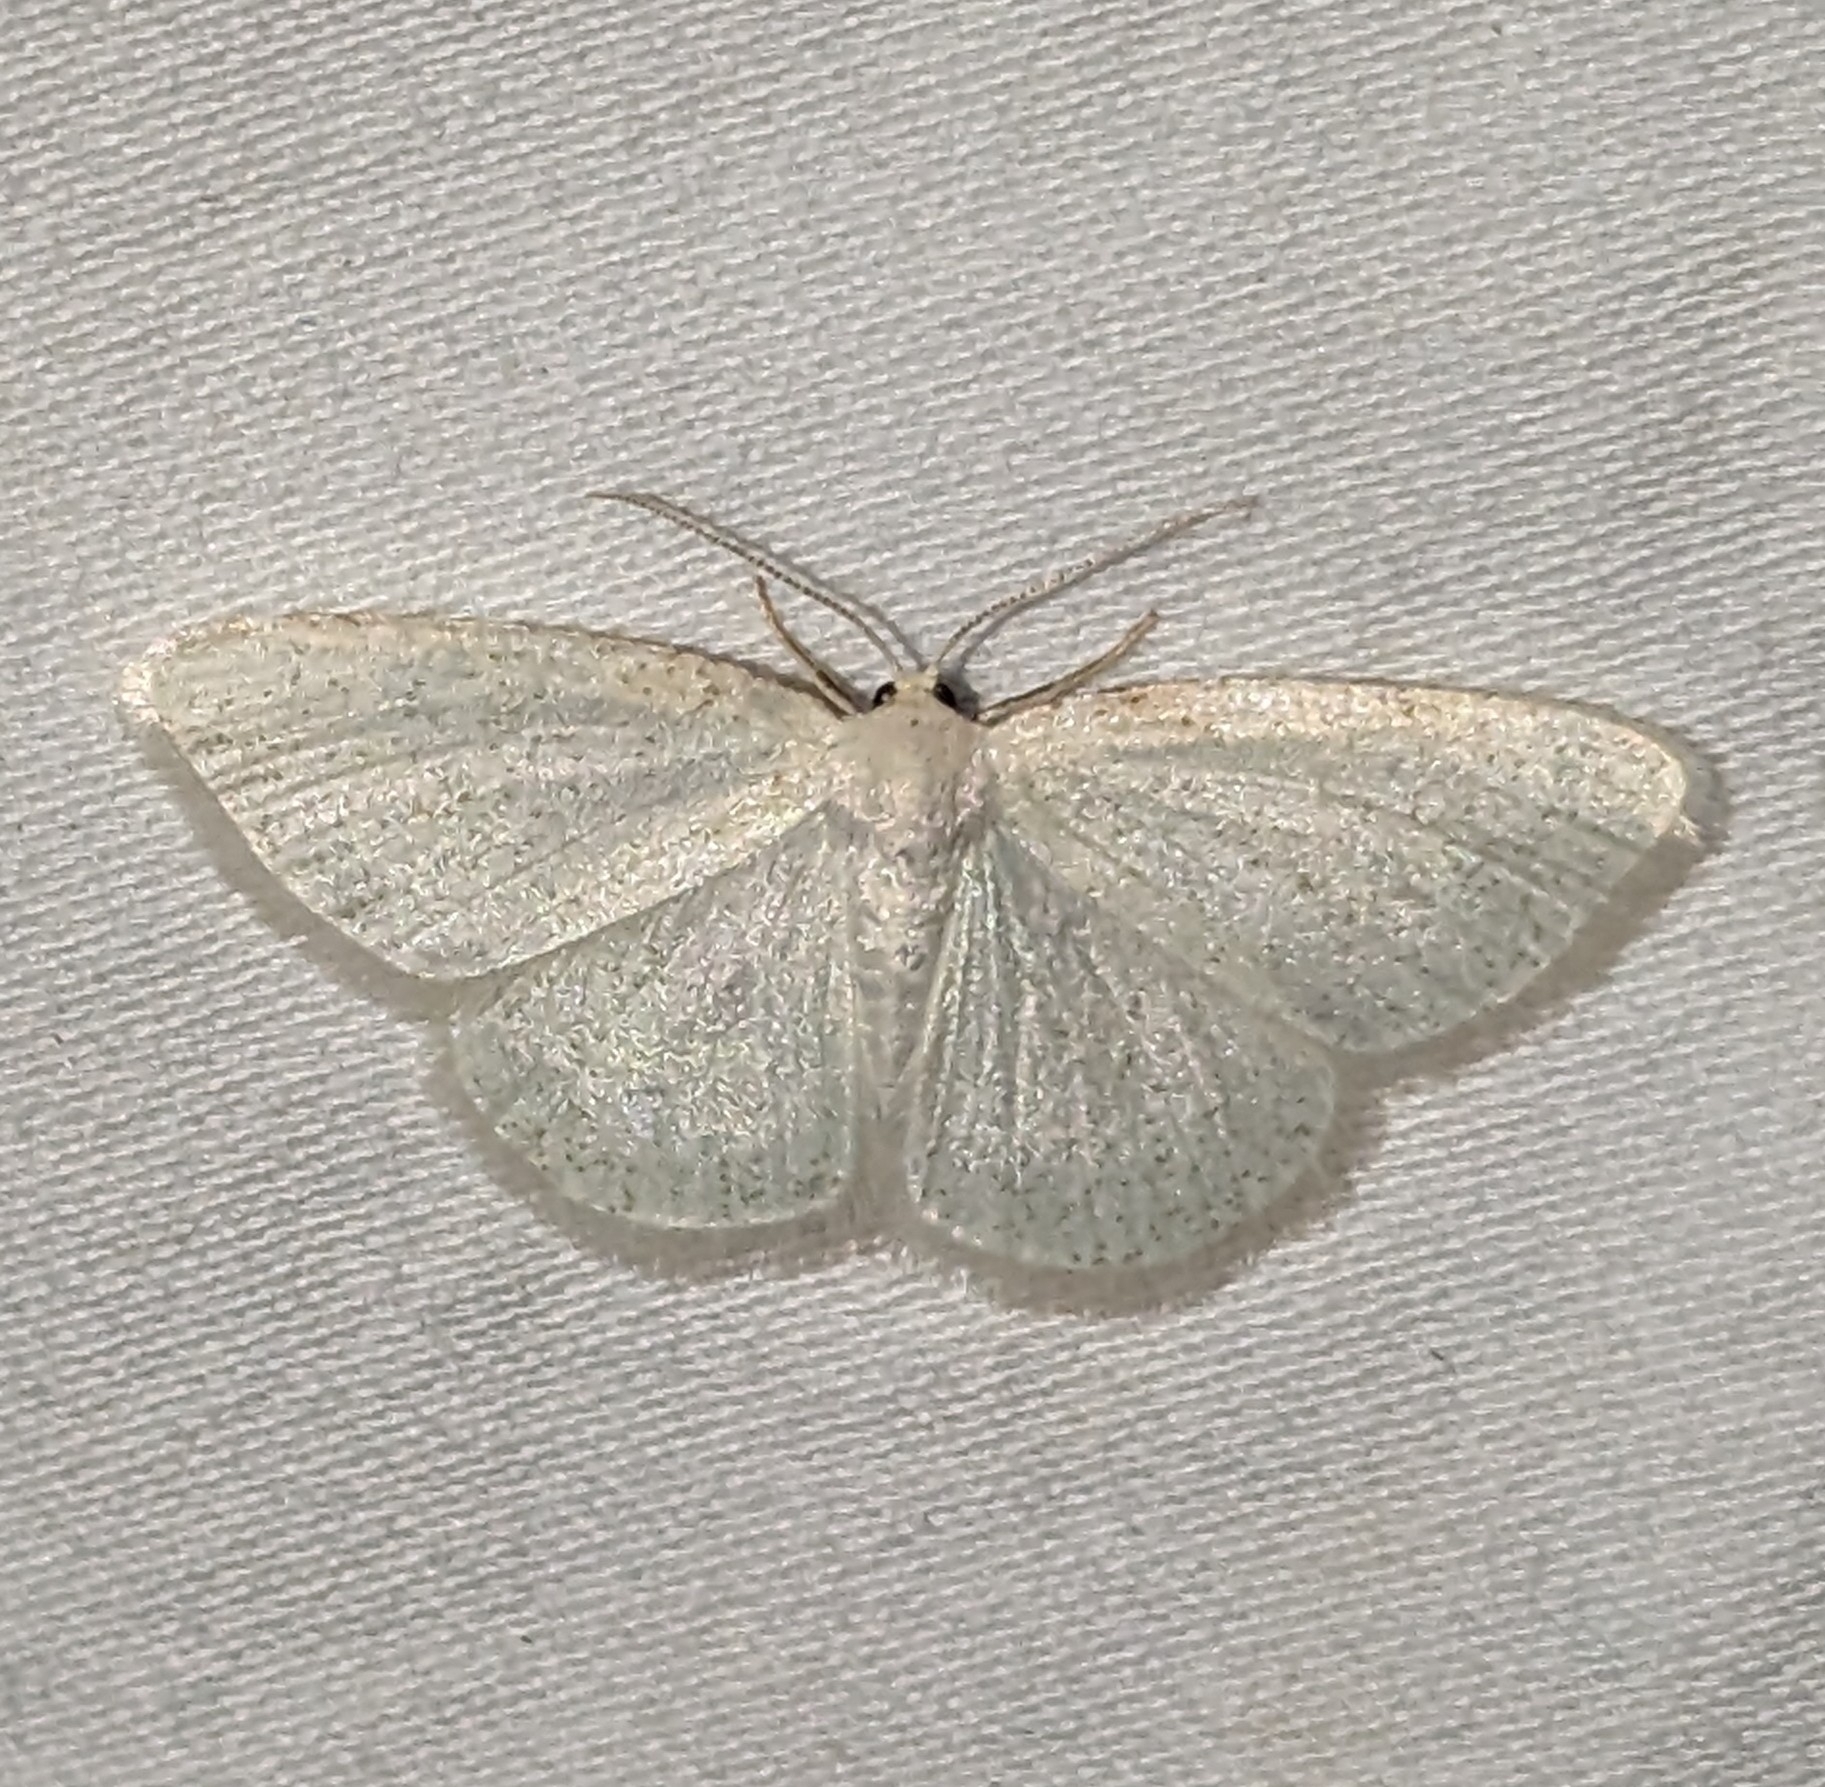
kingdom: Animalia
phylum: Arthropoda
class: Insecta
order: Lepidoptera
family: Geometridae
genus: Protitame
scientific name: Protitame virginalis
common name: Virgin moth
